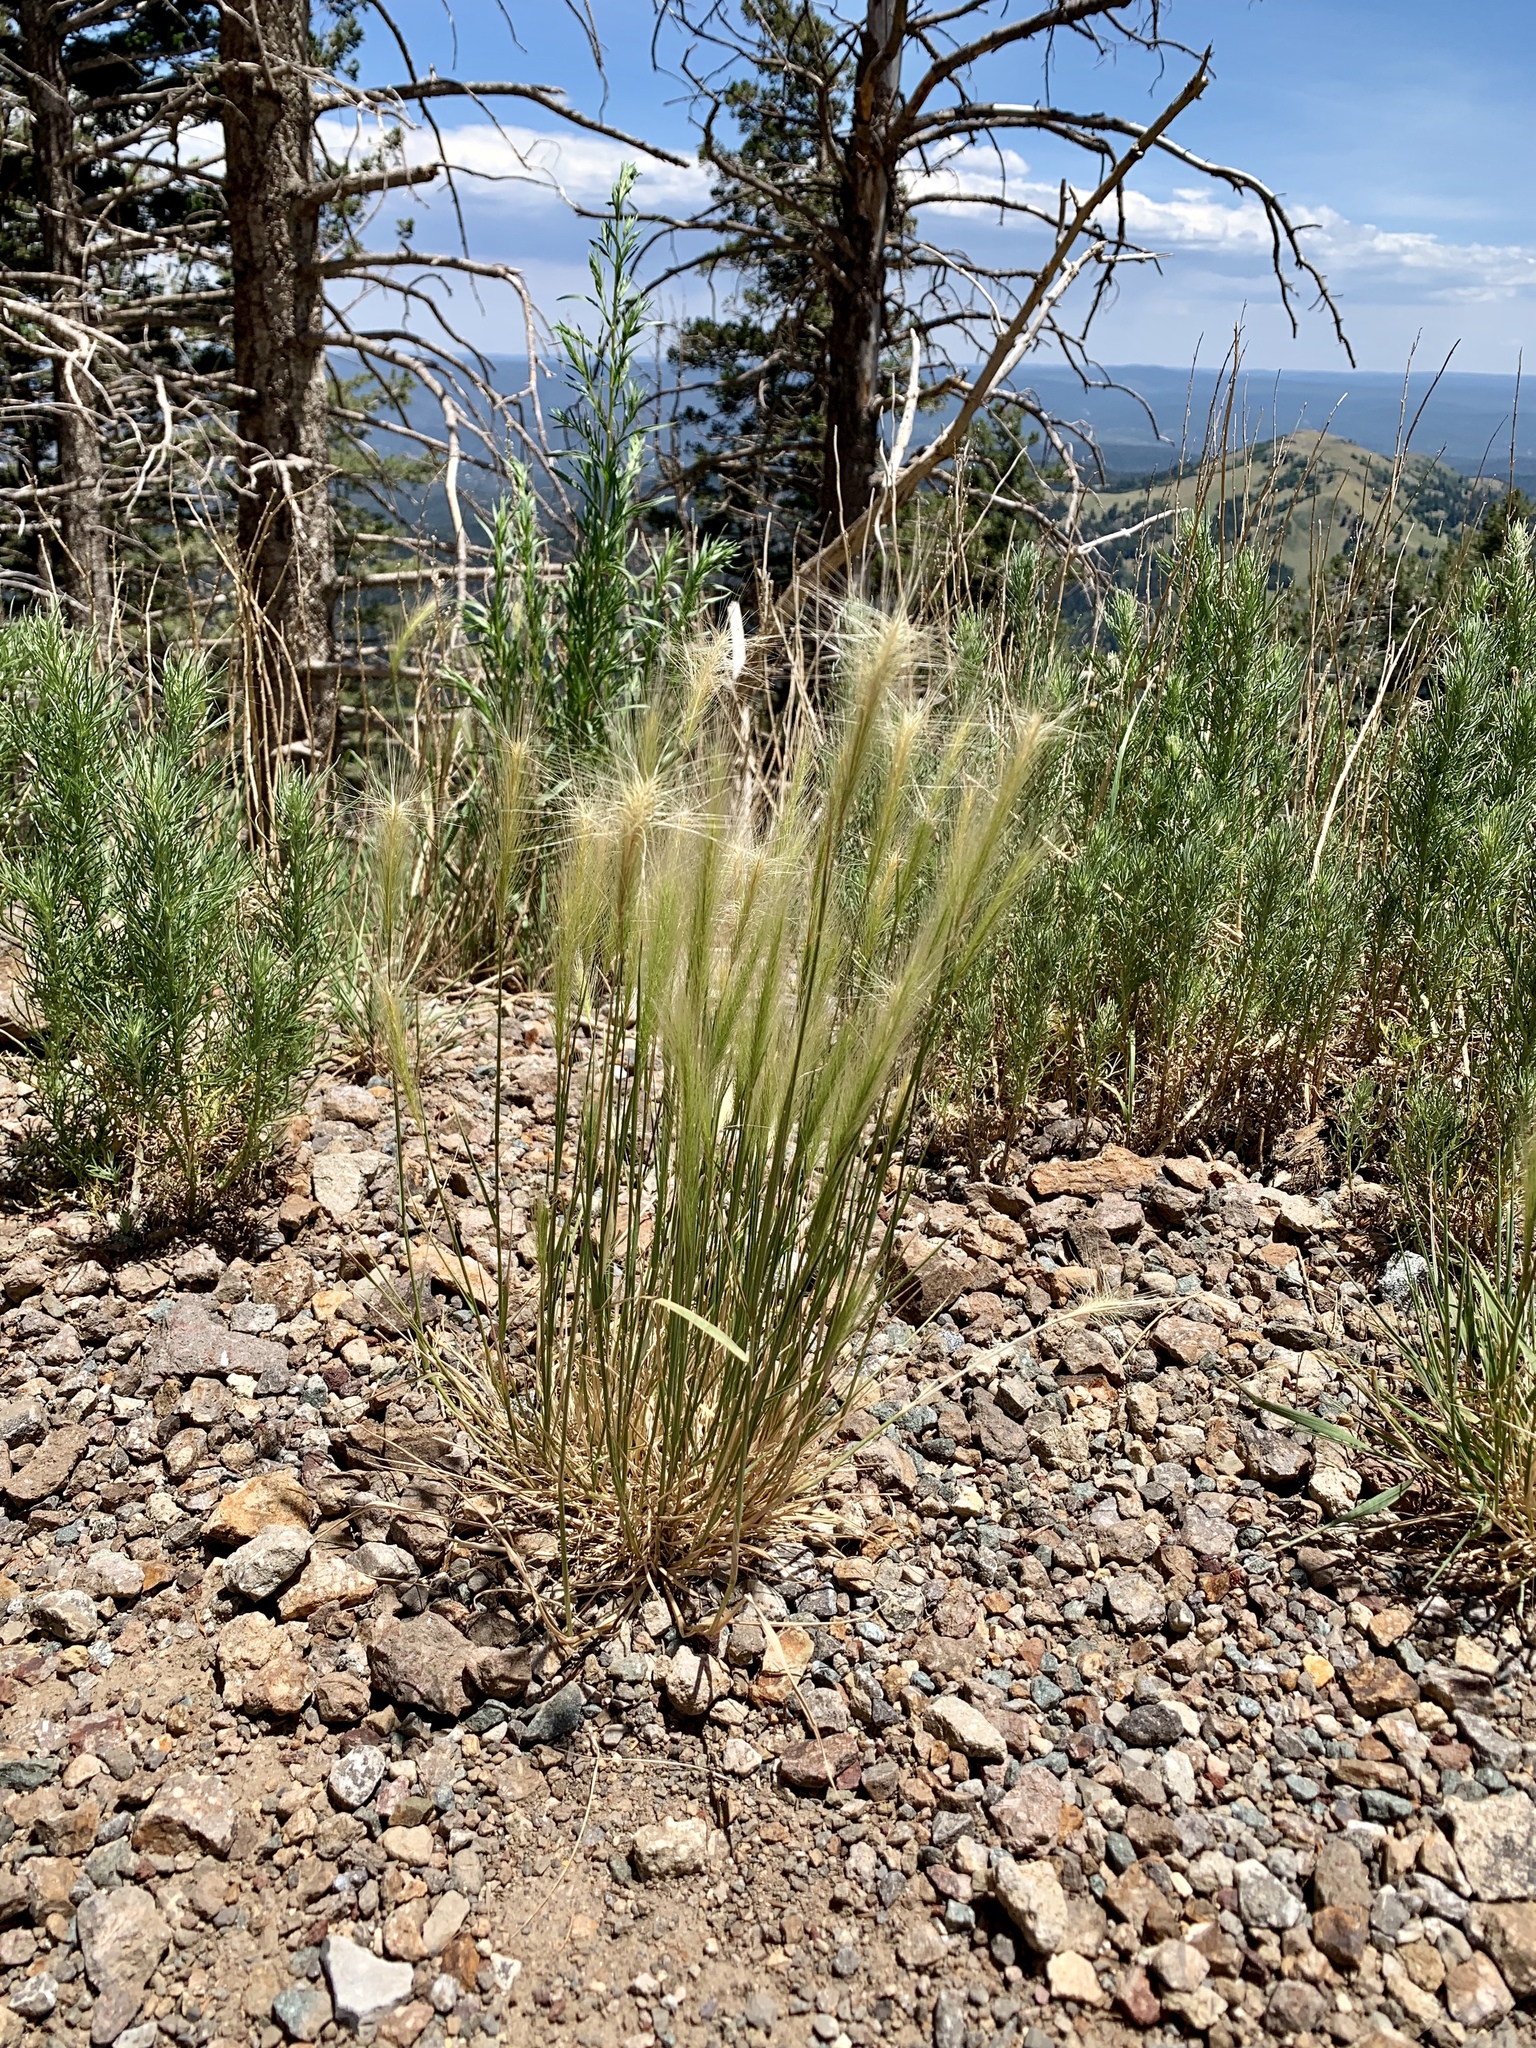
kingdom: Plantae
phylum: Tracheophyta
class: Liliopsida
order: Poales
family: Poaceae
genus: Elymus
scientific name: Elymus elymoides
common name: Bottlebrush squirreltail
